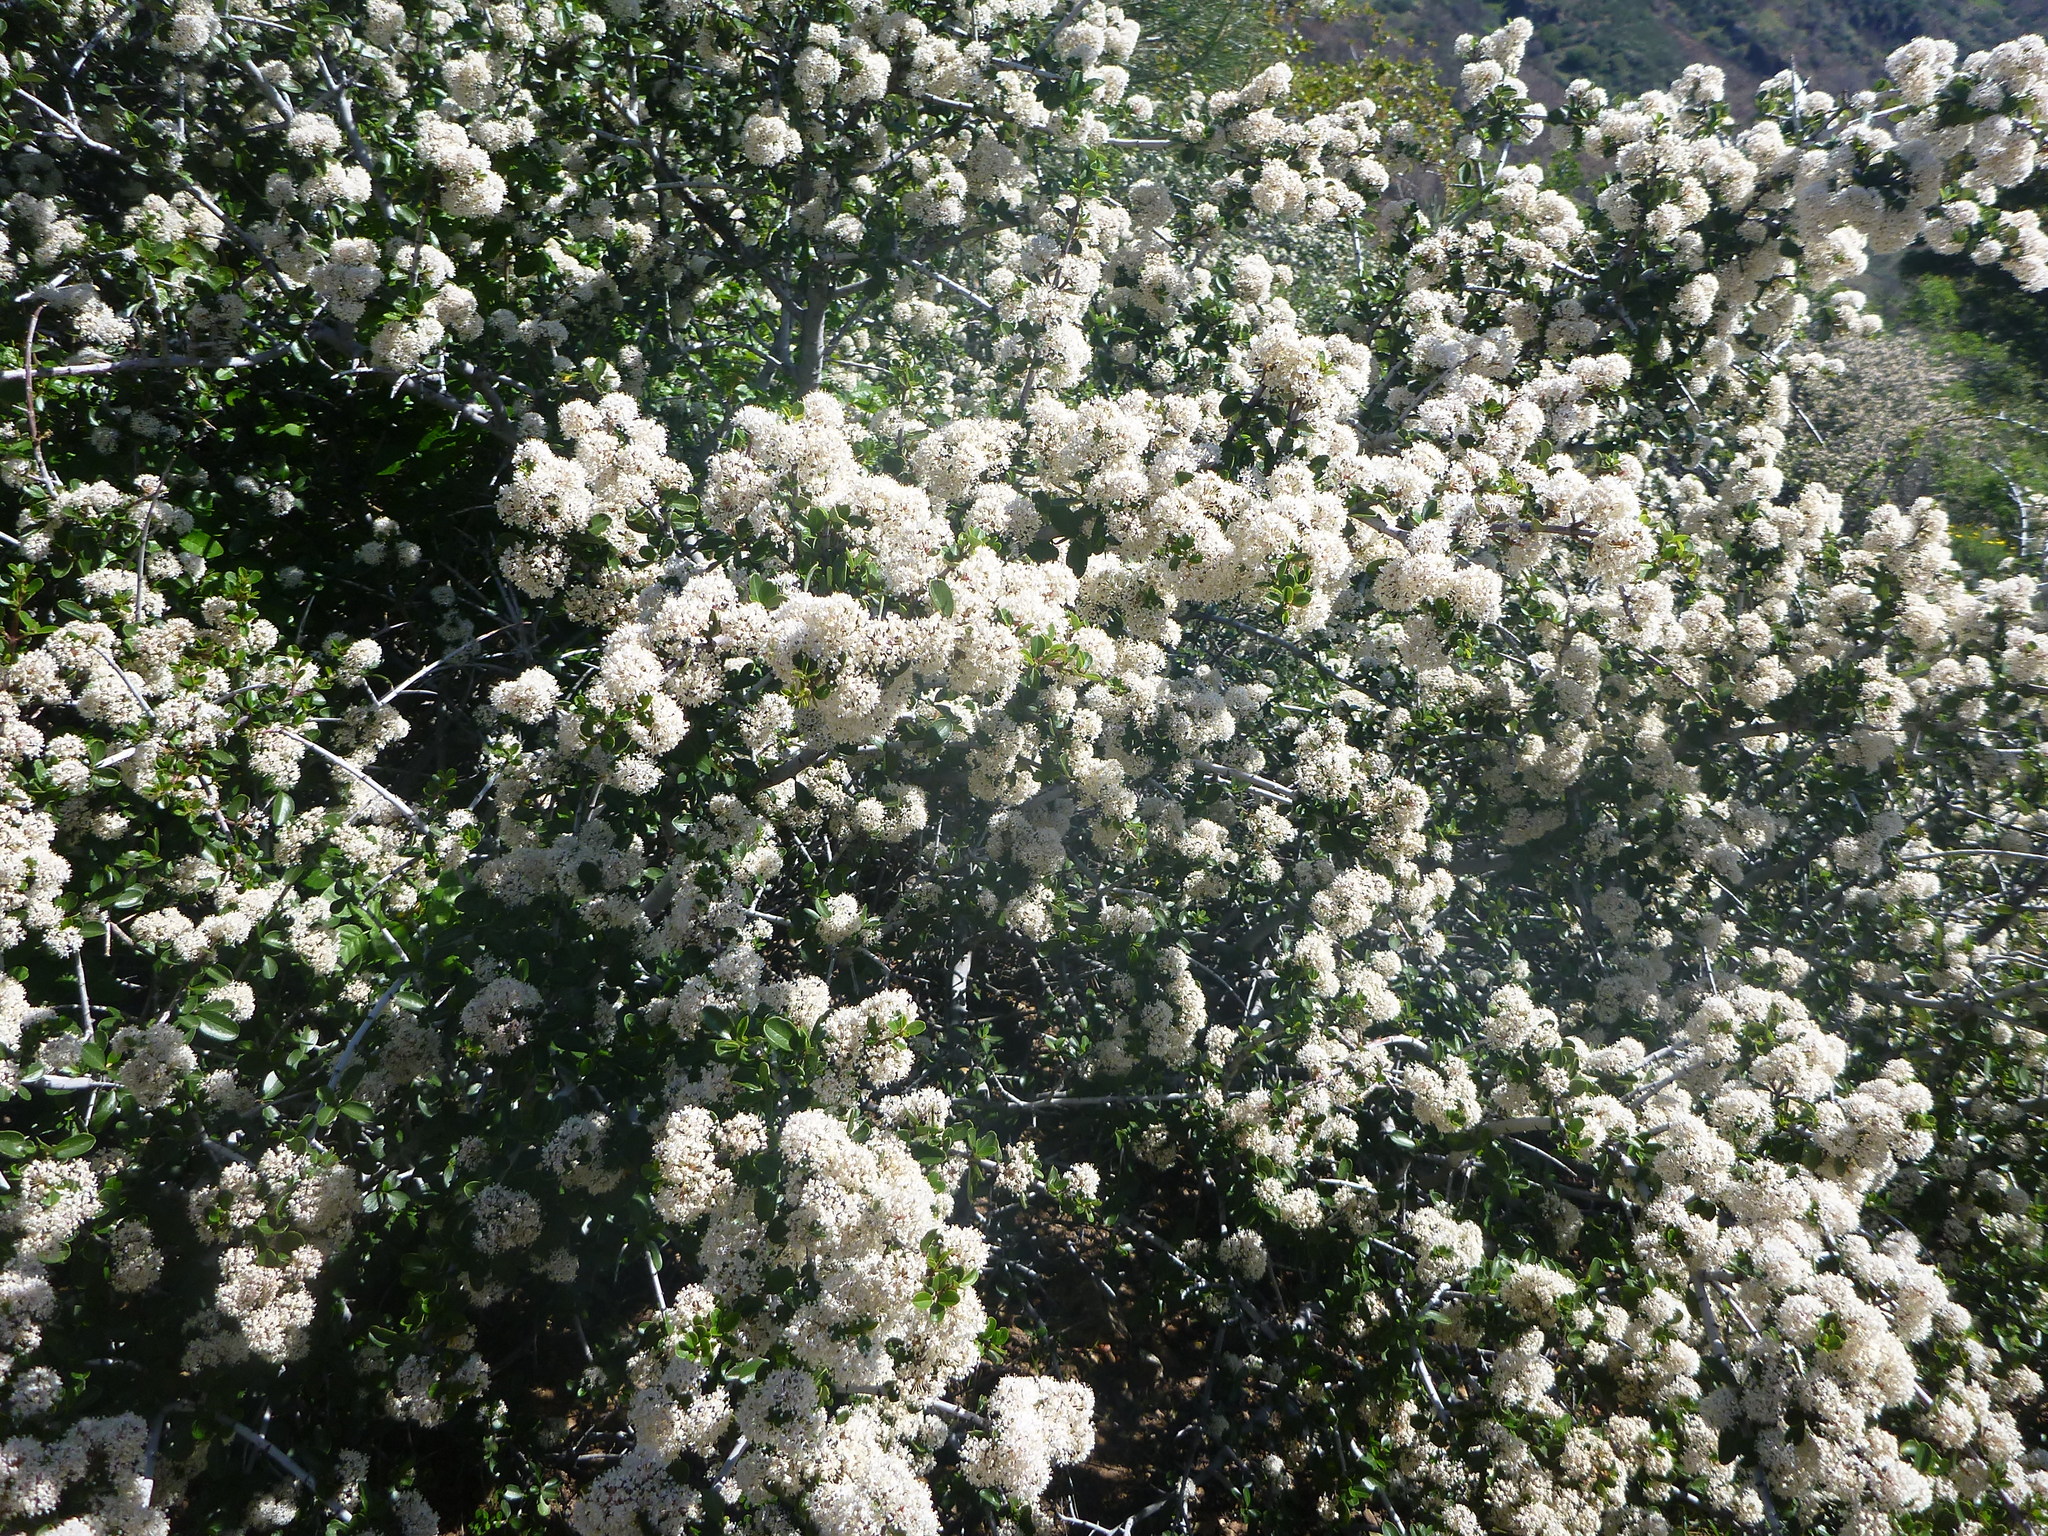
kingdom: Plantae
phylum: Tracheophyta
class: Magnoliopsida
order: Rosales
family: Rhamnaceae
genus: Ceanothus
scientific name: Ceanothus cuneatus
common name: Cuneate ceanothus
